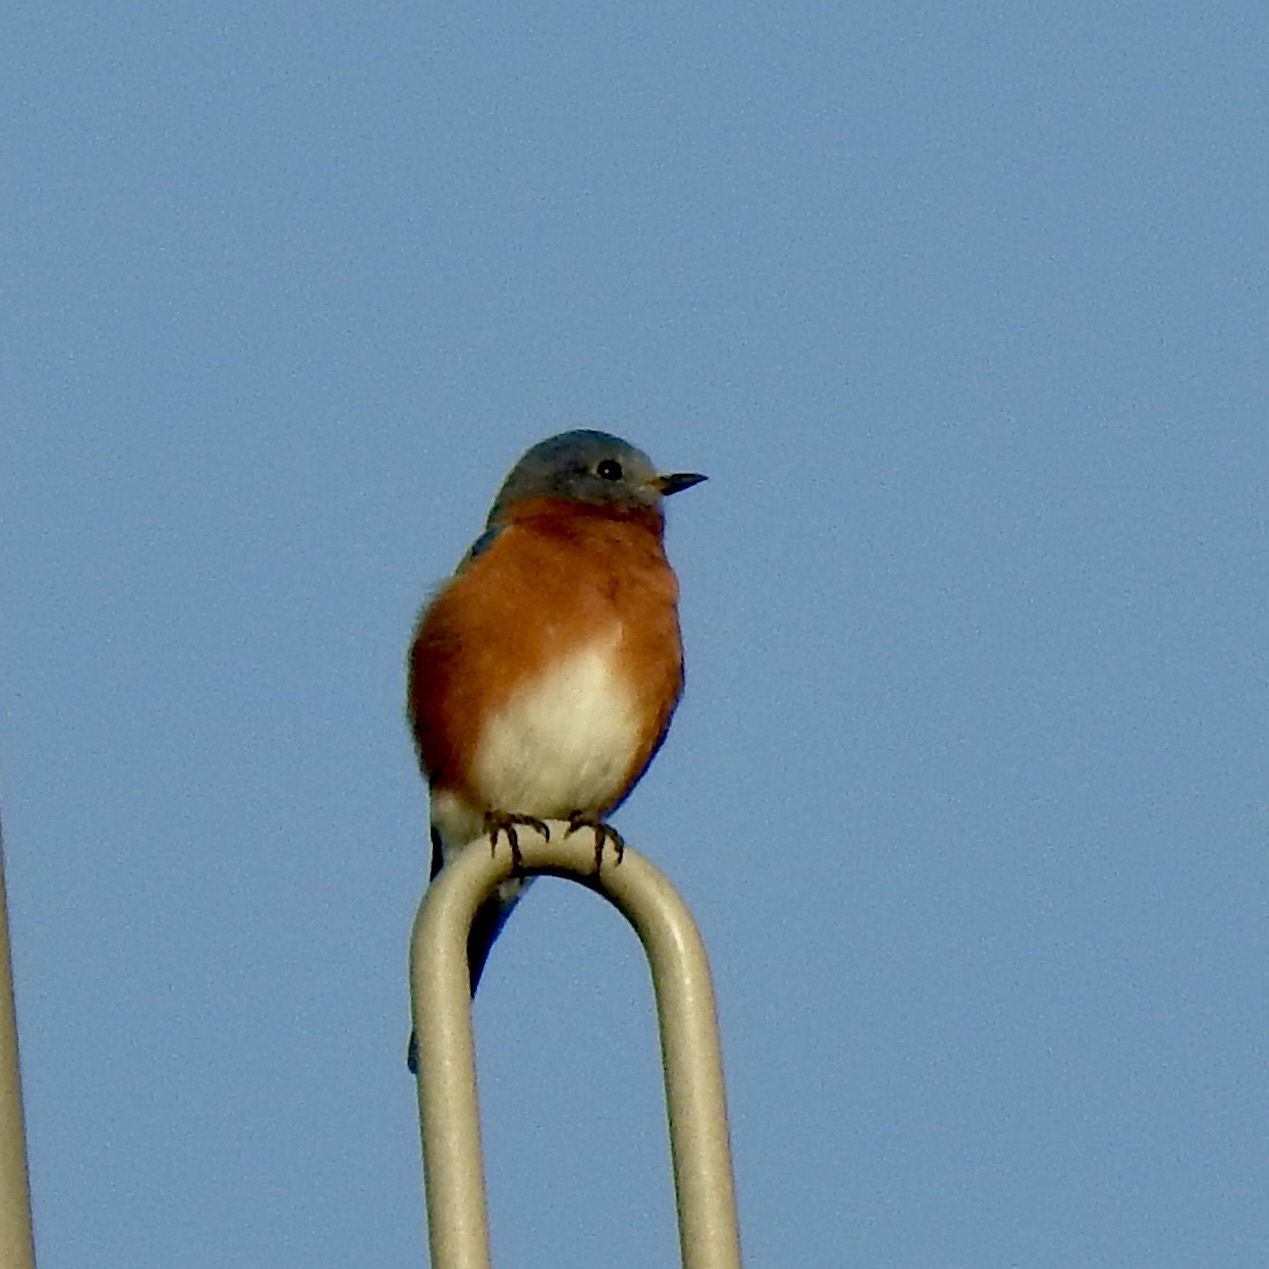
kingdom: Animalia
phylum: Chordata
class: Aves
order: Passeriformes
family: Turdidae
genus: Sialia
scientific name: Sialia sialis
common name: Eastern bluebird
